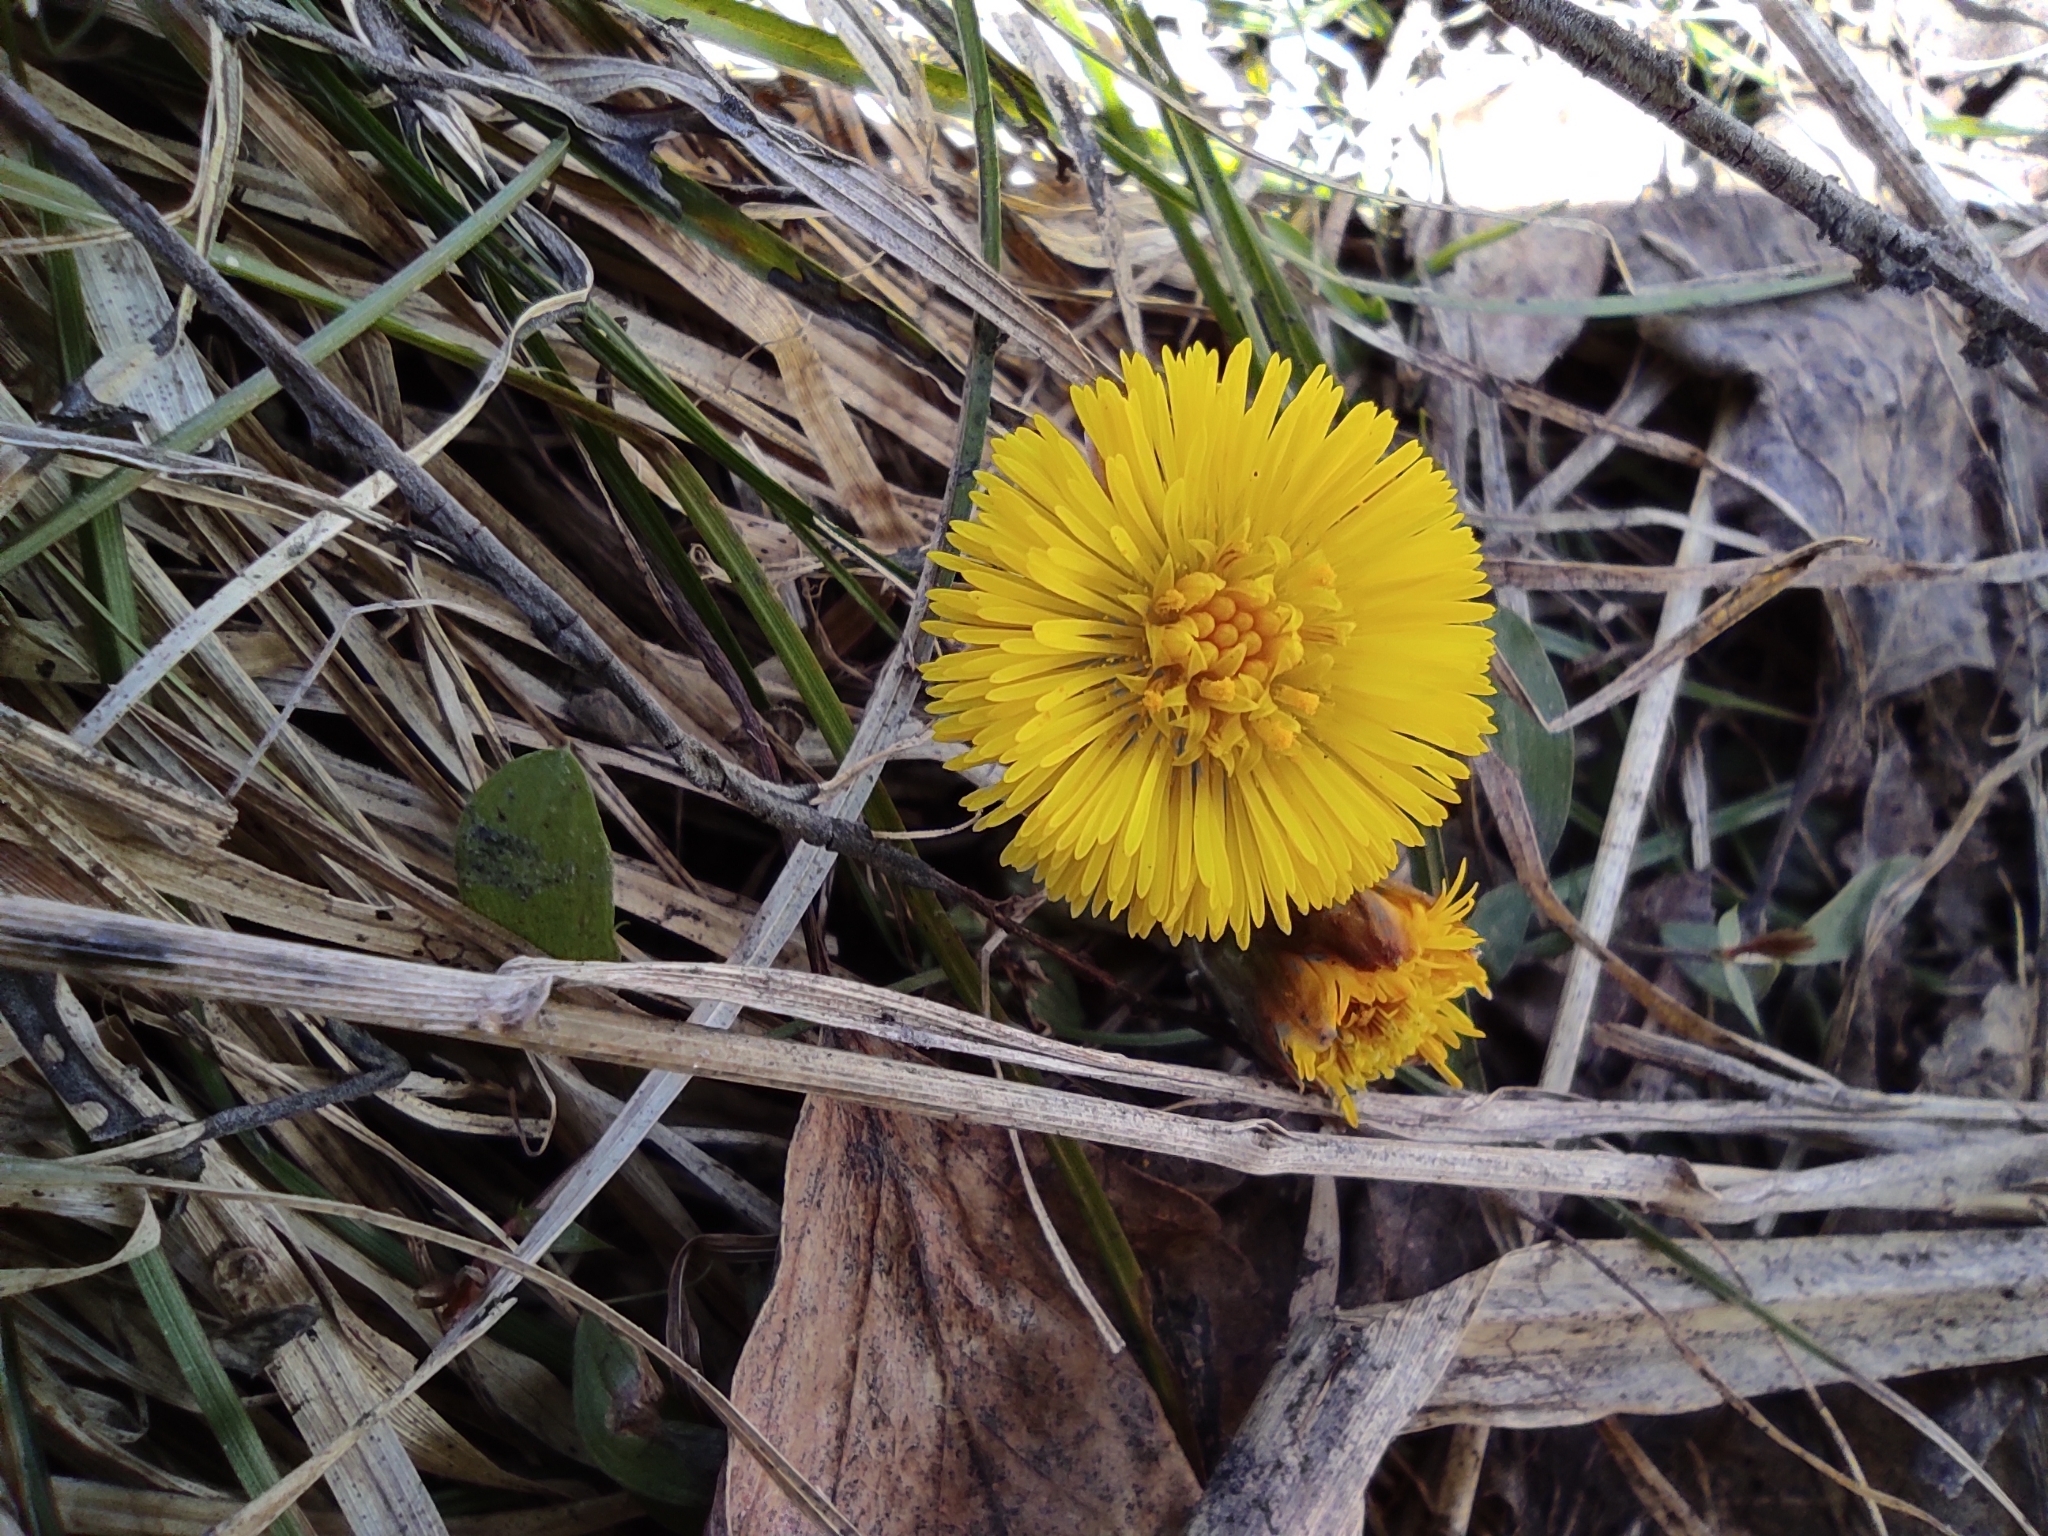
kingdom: Plantae
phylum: Tracheophyta
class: Magnoliopsida
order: Asterales
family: Asteraceae
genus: Tussilago
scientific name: Tussilago farfara
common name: Coltsfoot
